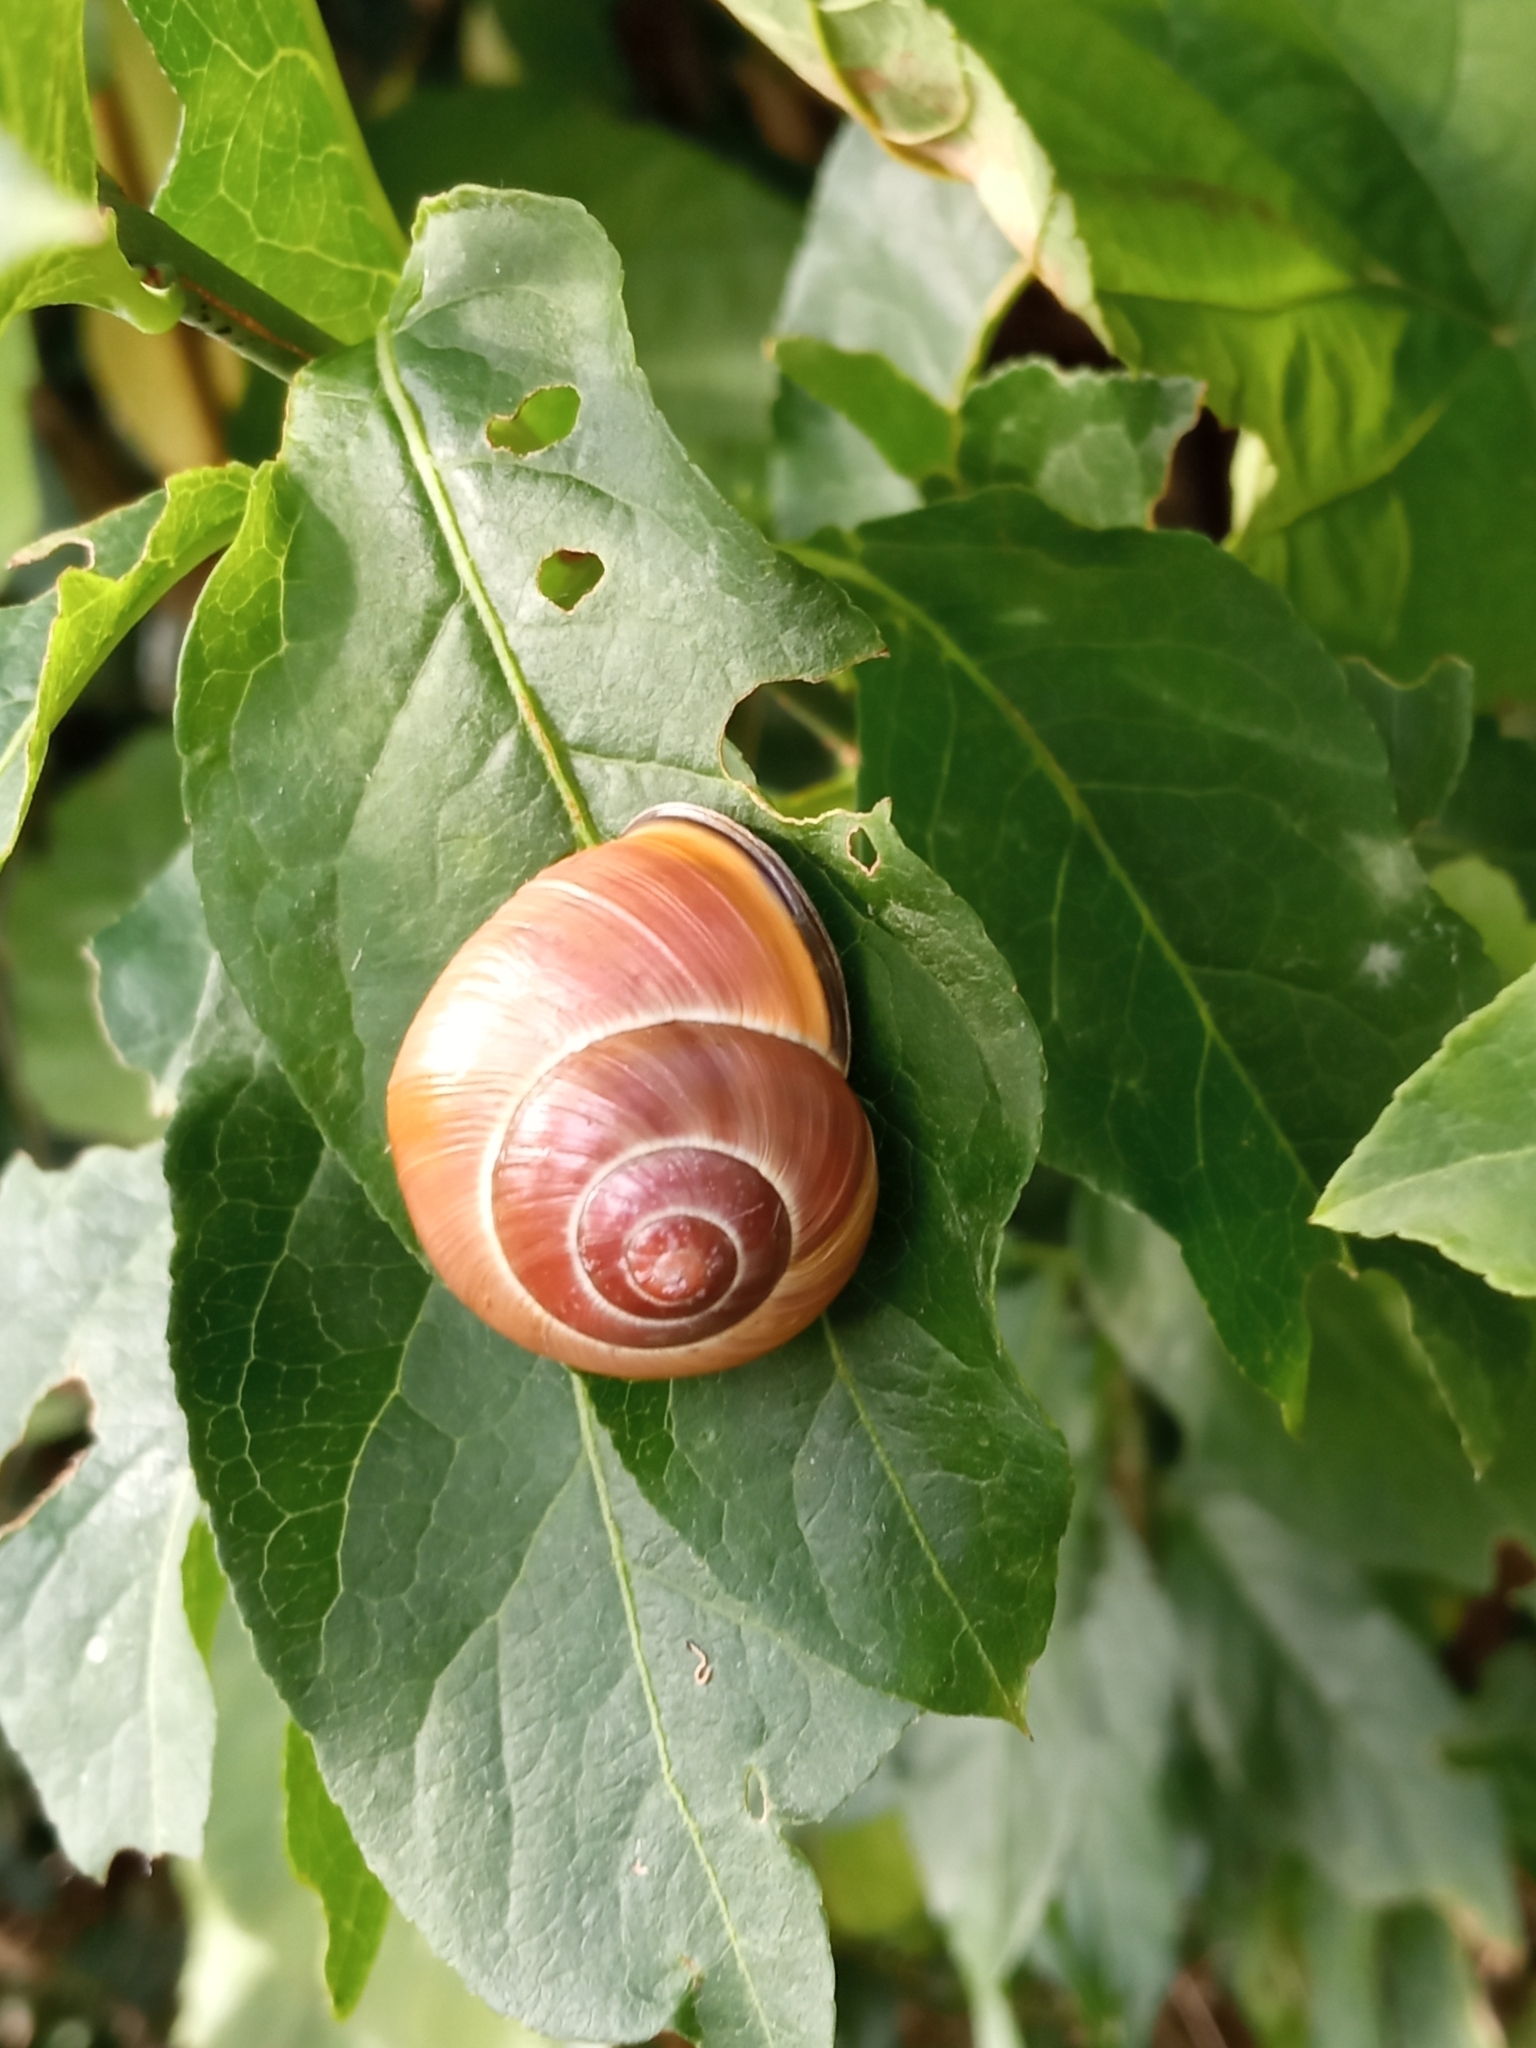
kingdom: Animalia
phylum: Mollusca
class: Gastropoda
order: Stylommatophora
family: Helicidae
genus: Cepaea
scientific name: Cepaea nemoralis
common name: Grovesnail
